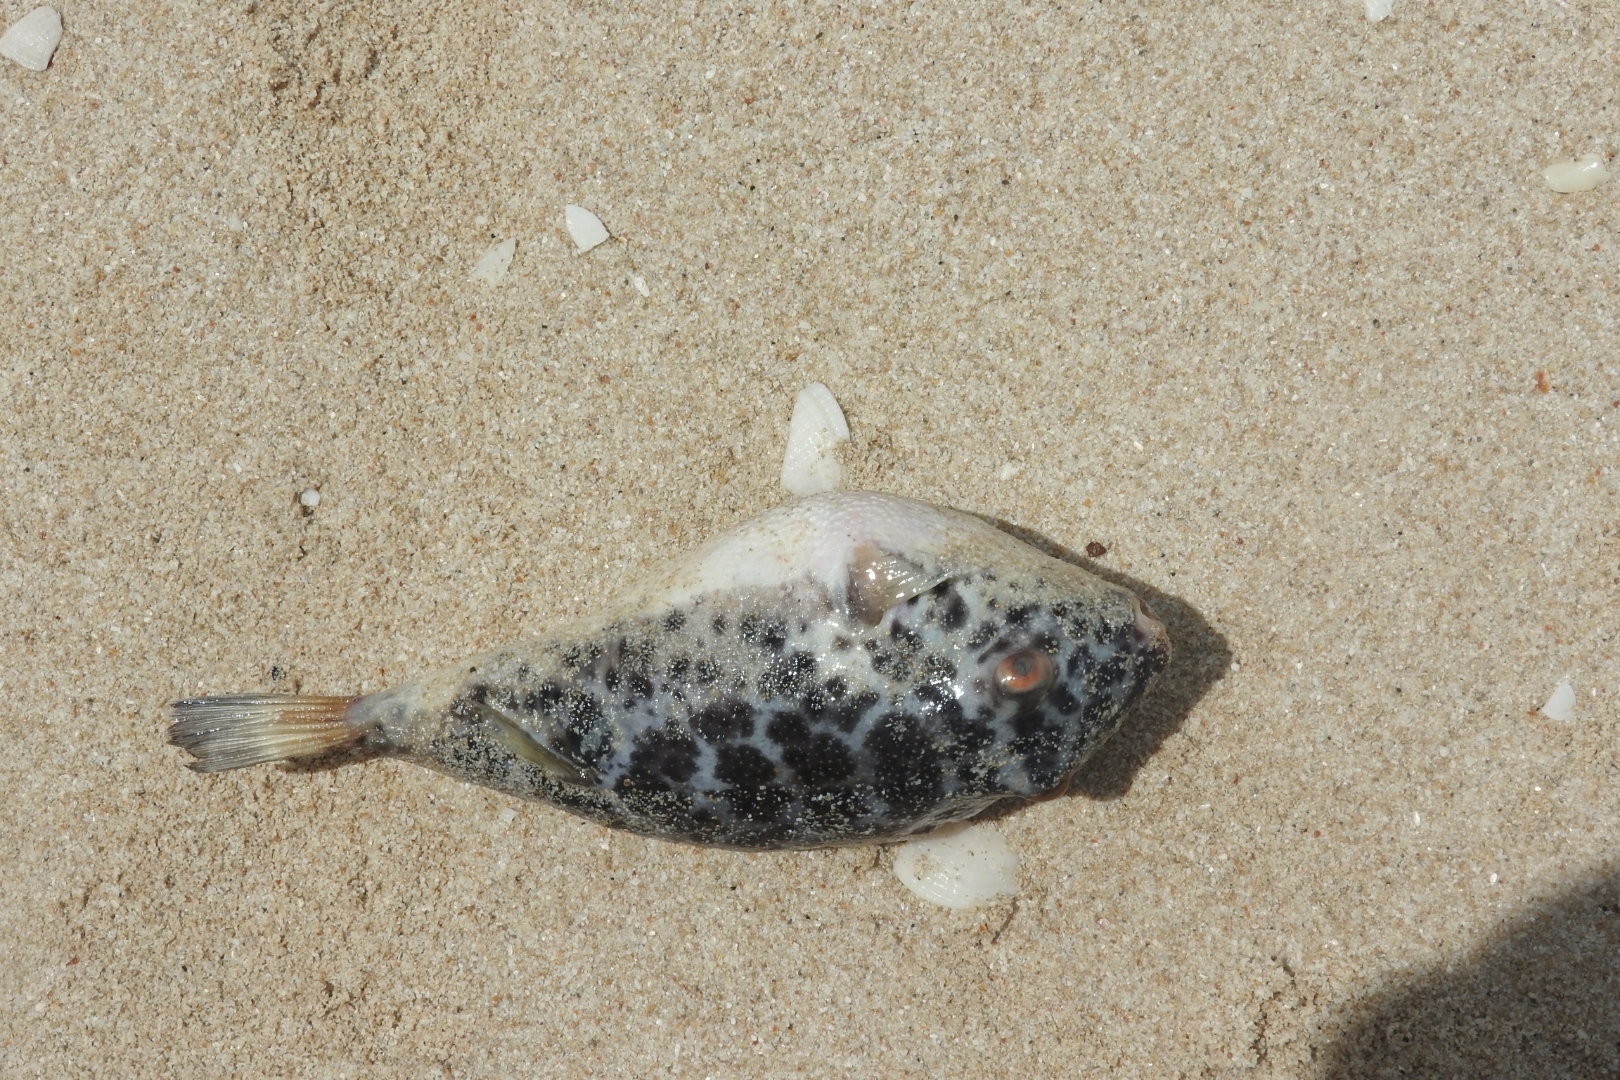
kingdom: Animalia
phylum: Chordata
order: Tetraodontiformes
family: Tetraodontidae
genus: Sphoeroides
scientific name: Sphoeroides testudineus
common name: Checkered puffer
